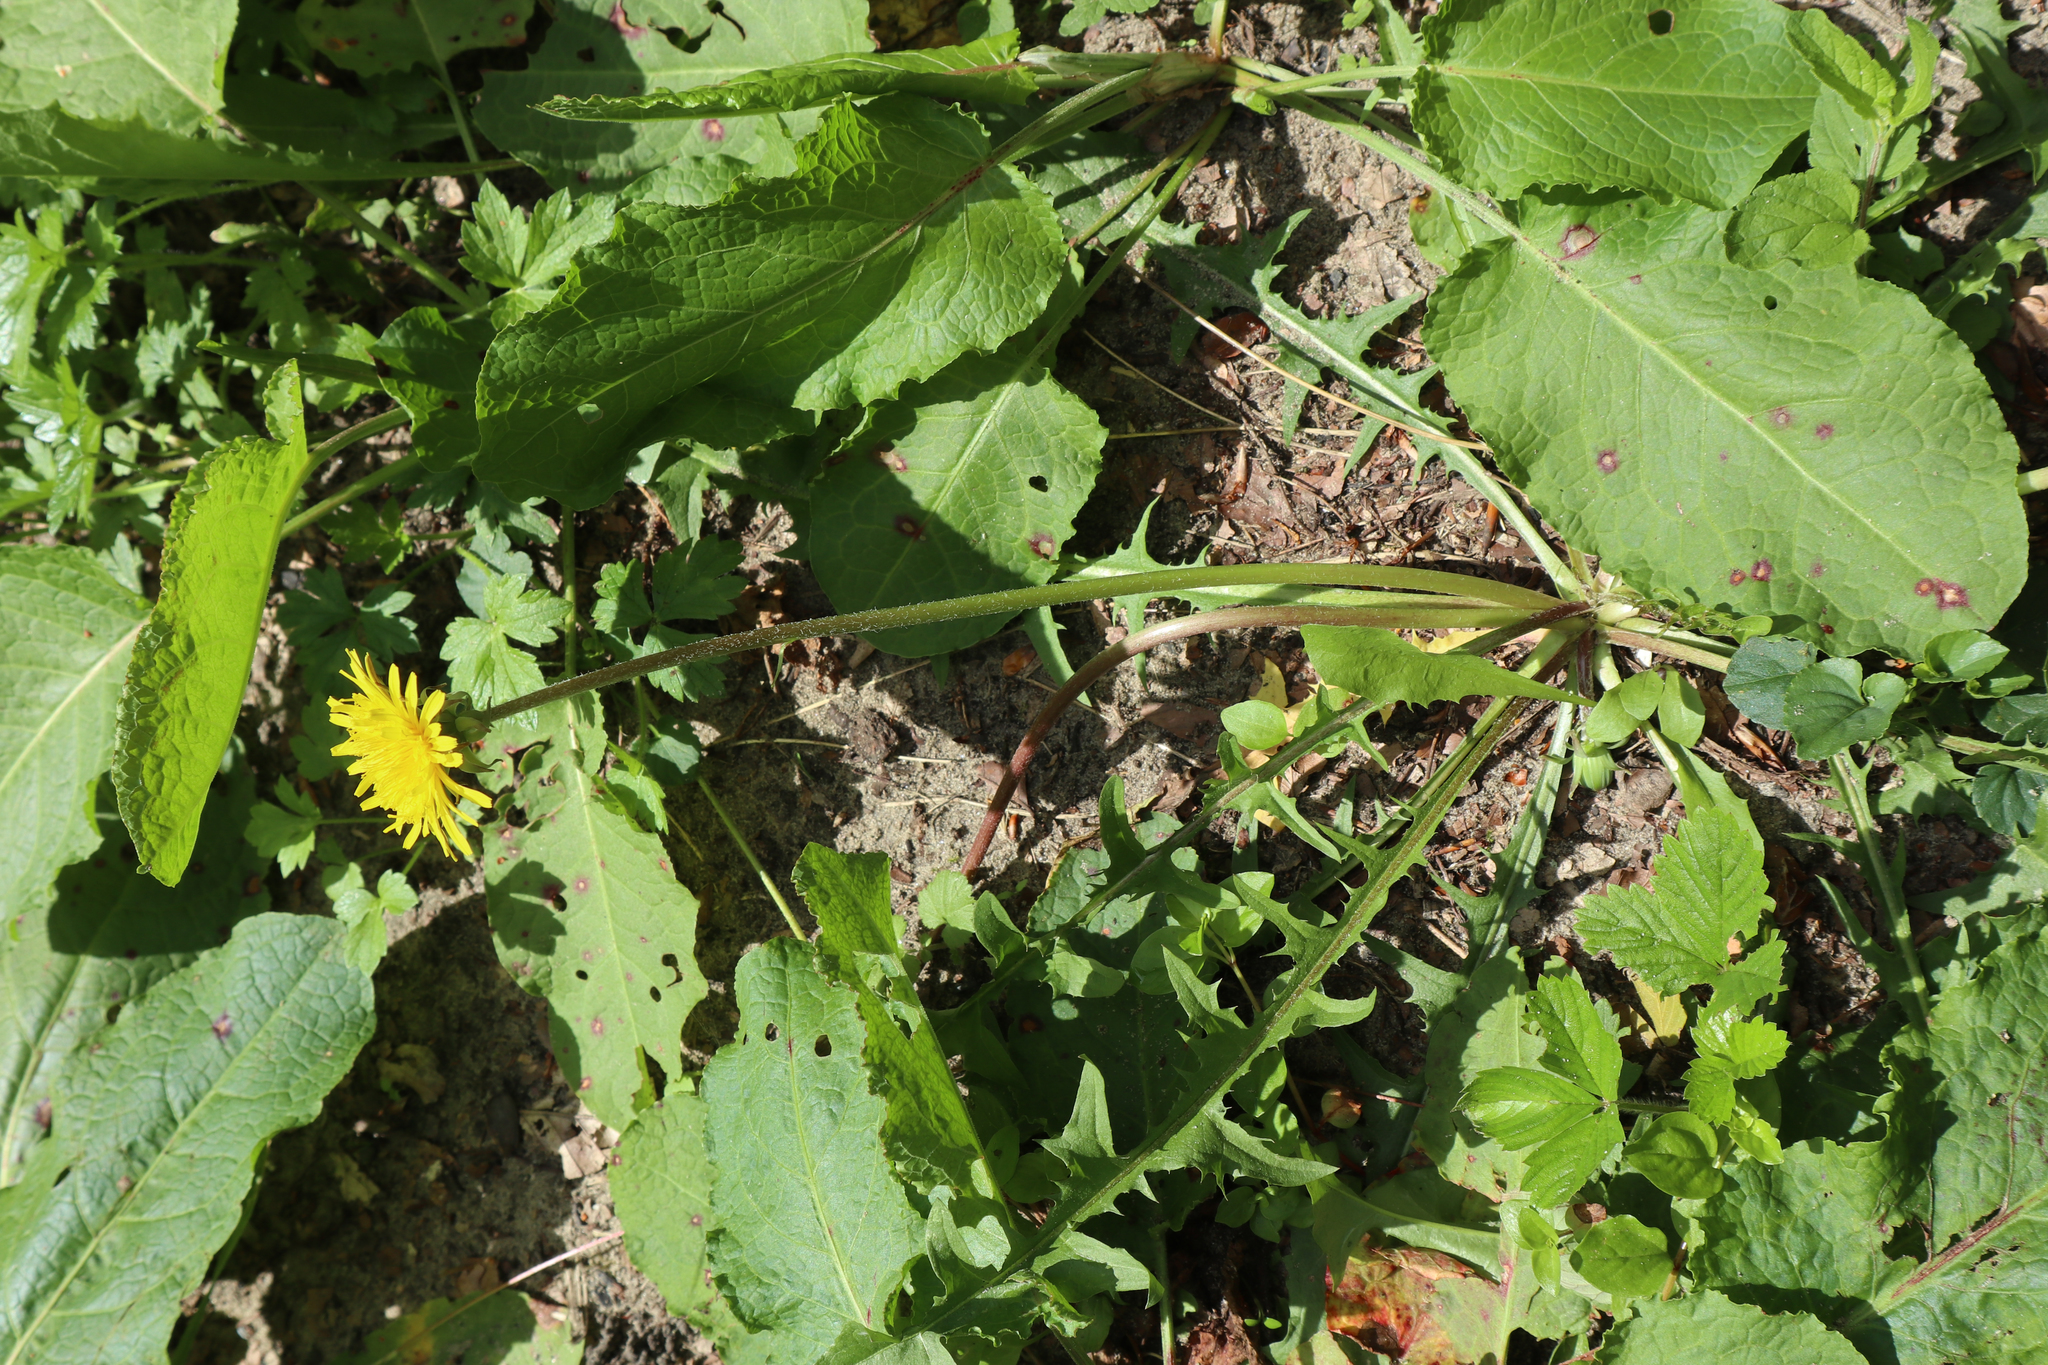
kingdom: Plantae
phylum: Tracheophyta
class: Magnoliopsida
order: Asterales
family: Asteraceae
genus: Taraxacum
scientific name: Taraxacum officinale
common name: Common dandelion
